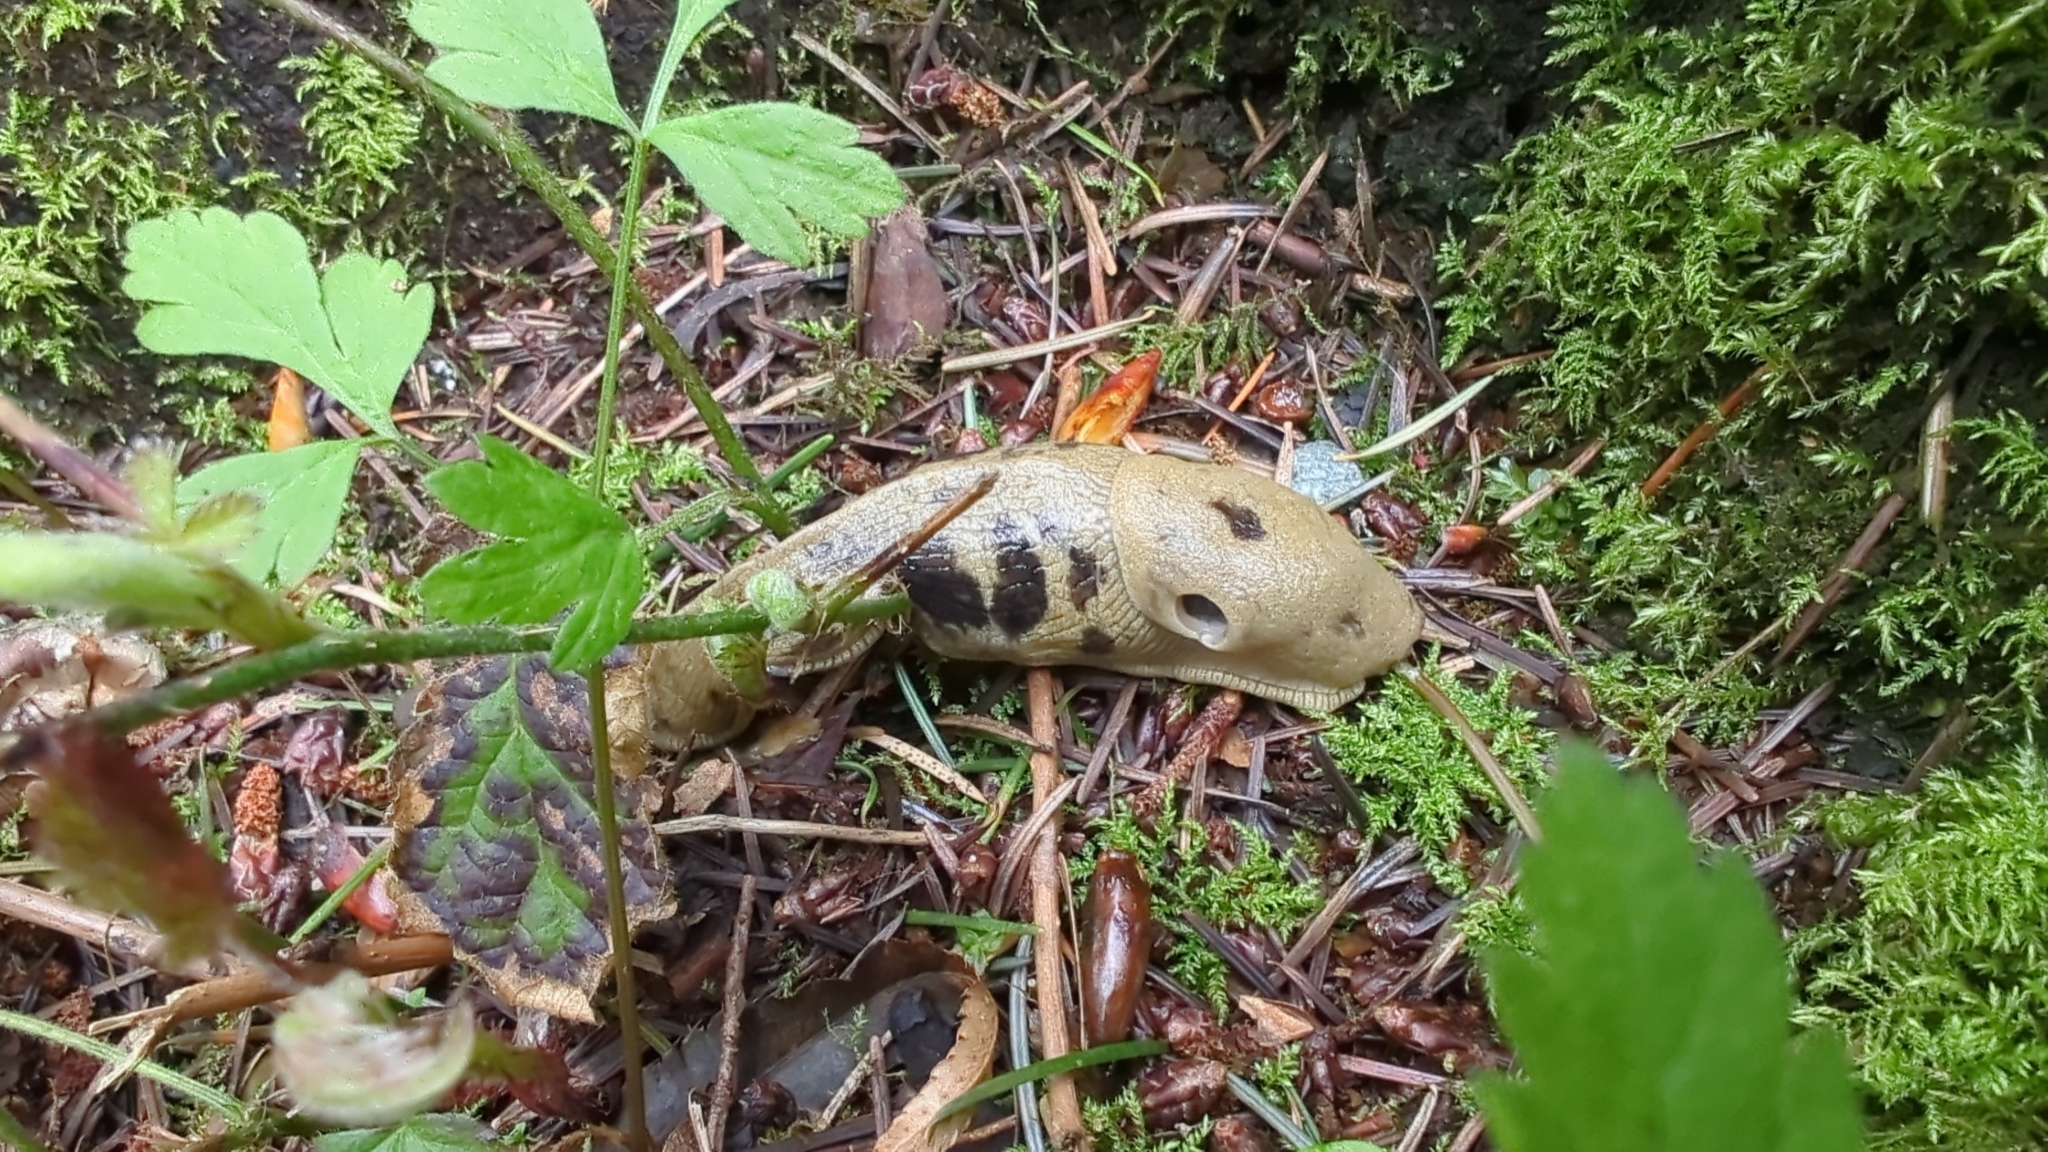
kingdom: Animalia
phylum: Mollusca
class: Gastropoda
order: Stylommatophora
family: Ariolimacidae
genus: Ariolimax
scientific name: Ariolimax columbianus
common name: Pacific banana slug
